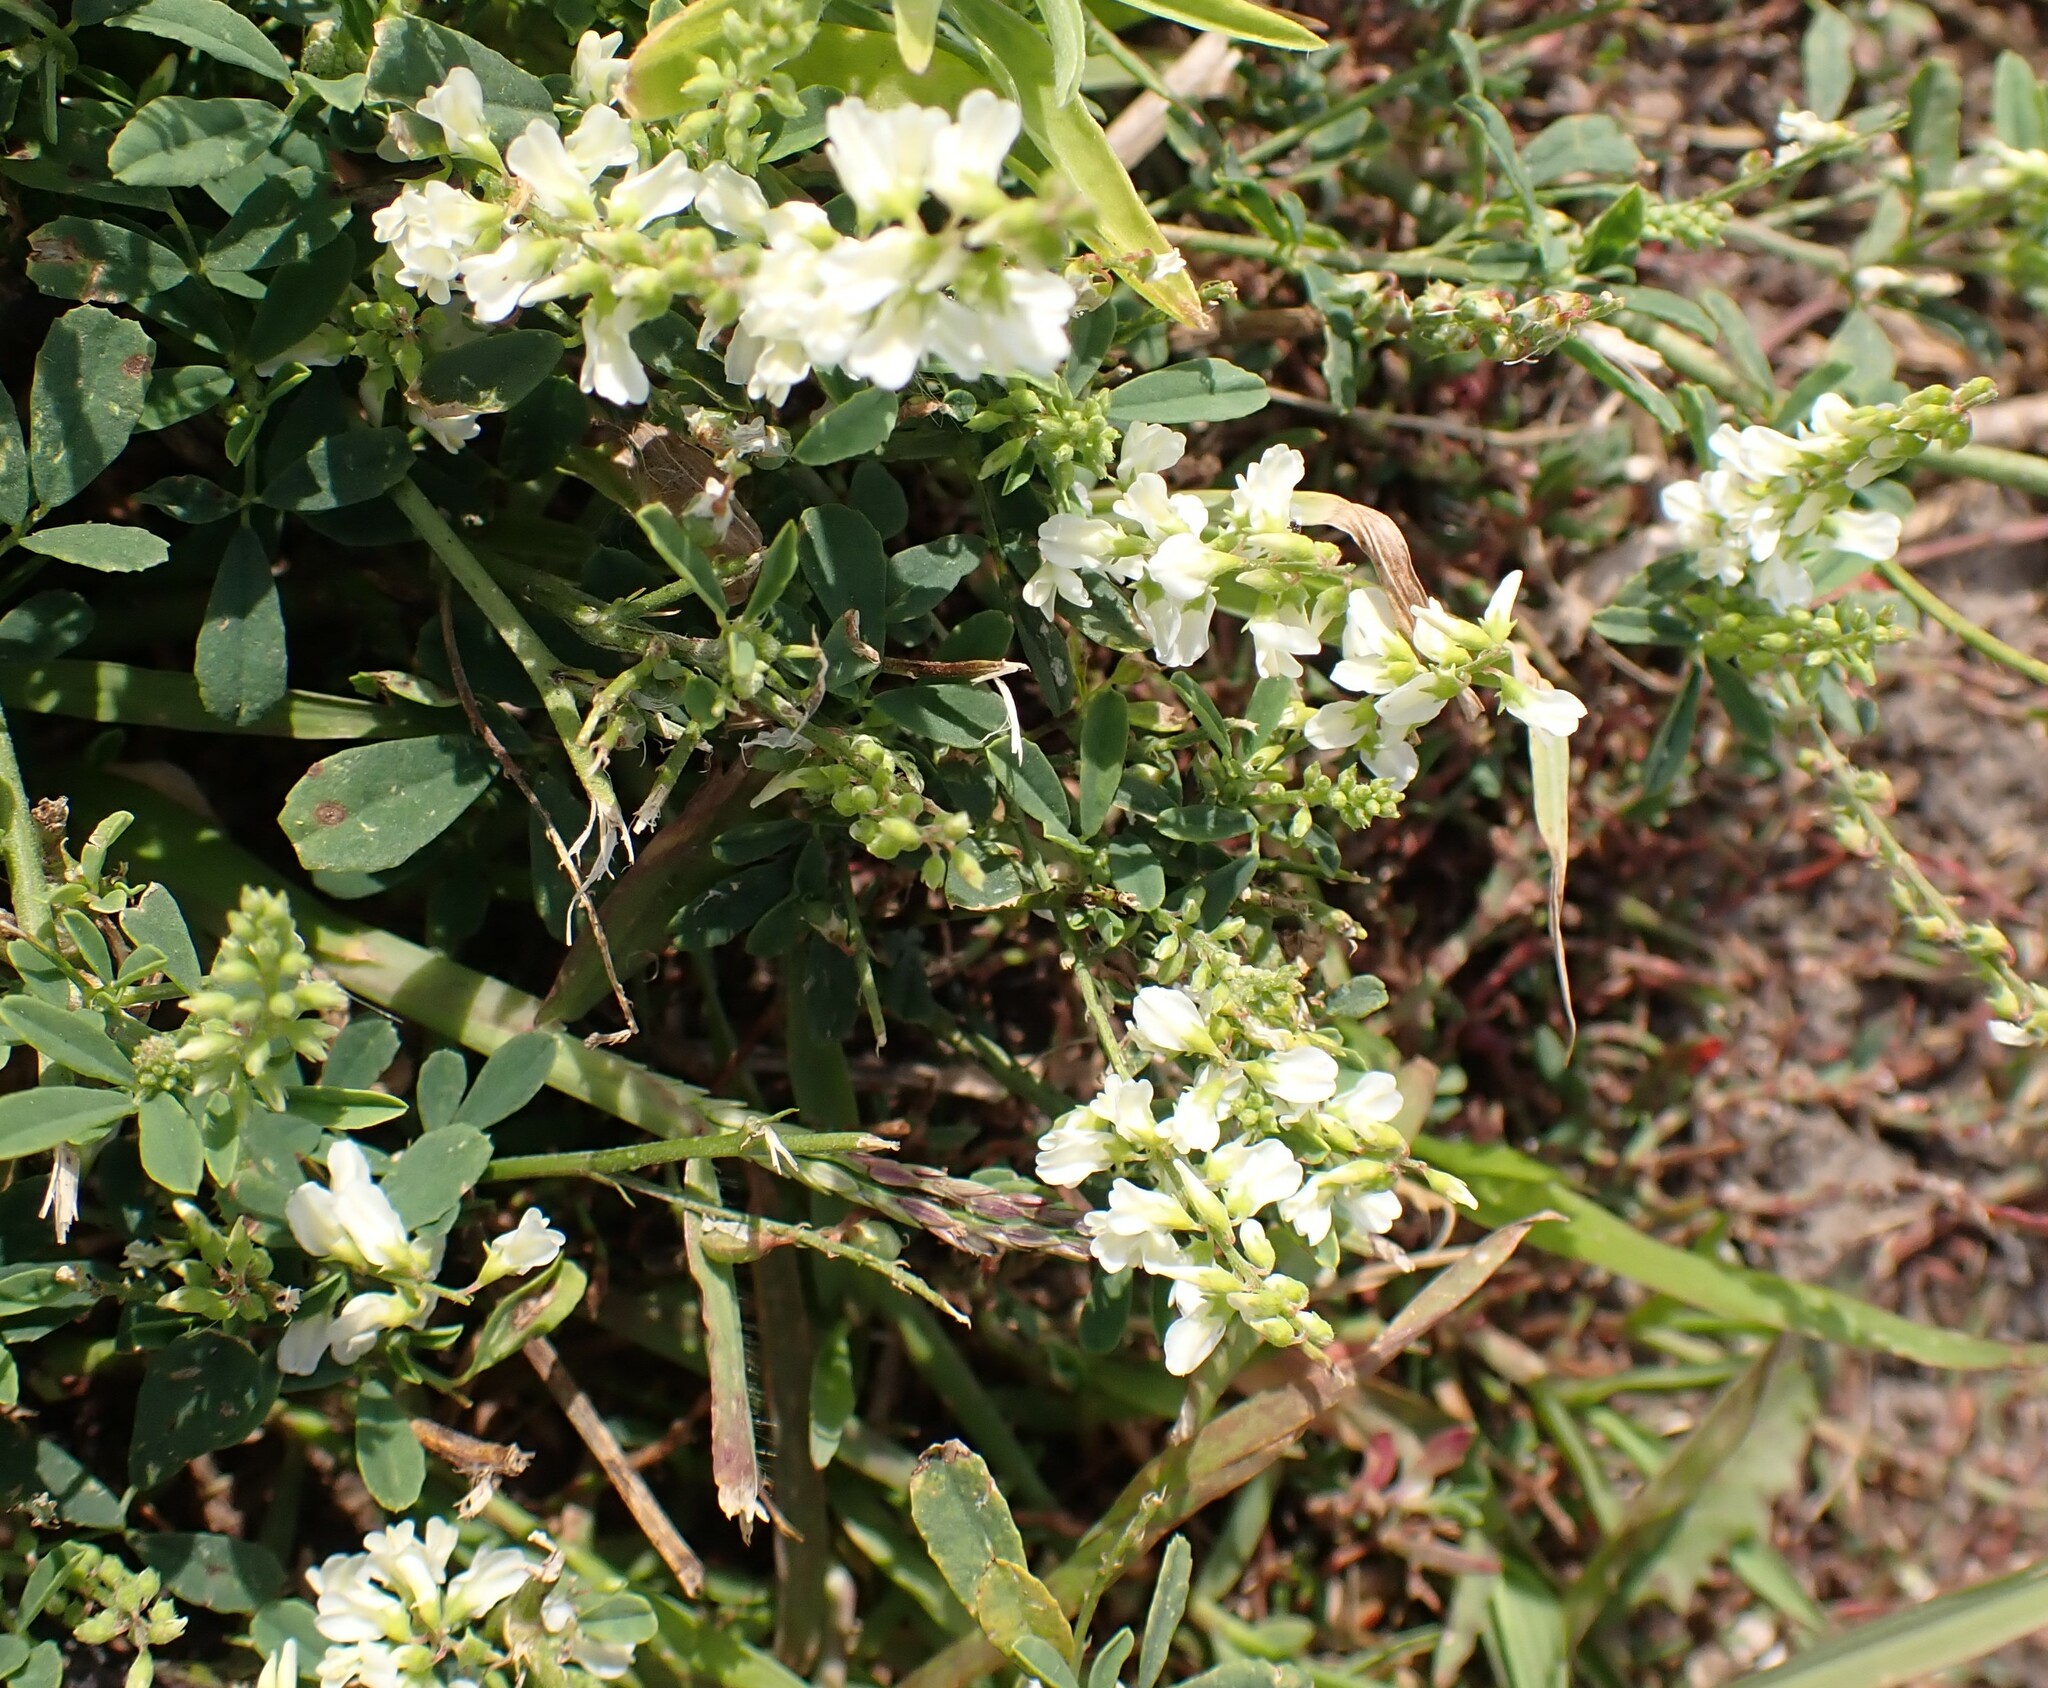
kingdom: Plantae
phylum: Tracheophyta
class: Magnoliopsida
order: Fabales
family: Fabaceae
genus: Melilotus
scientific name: Melilotus albus
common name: White melilot
